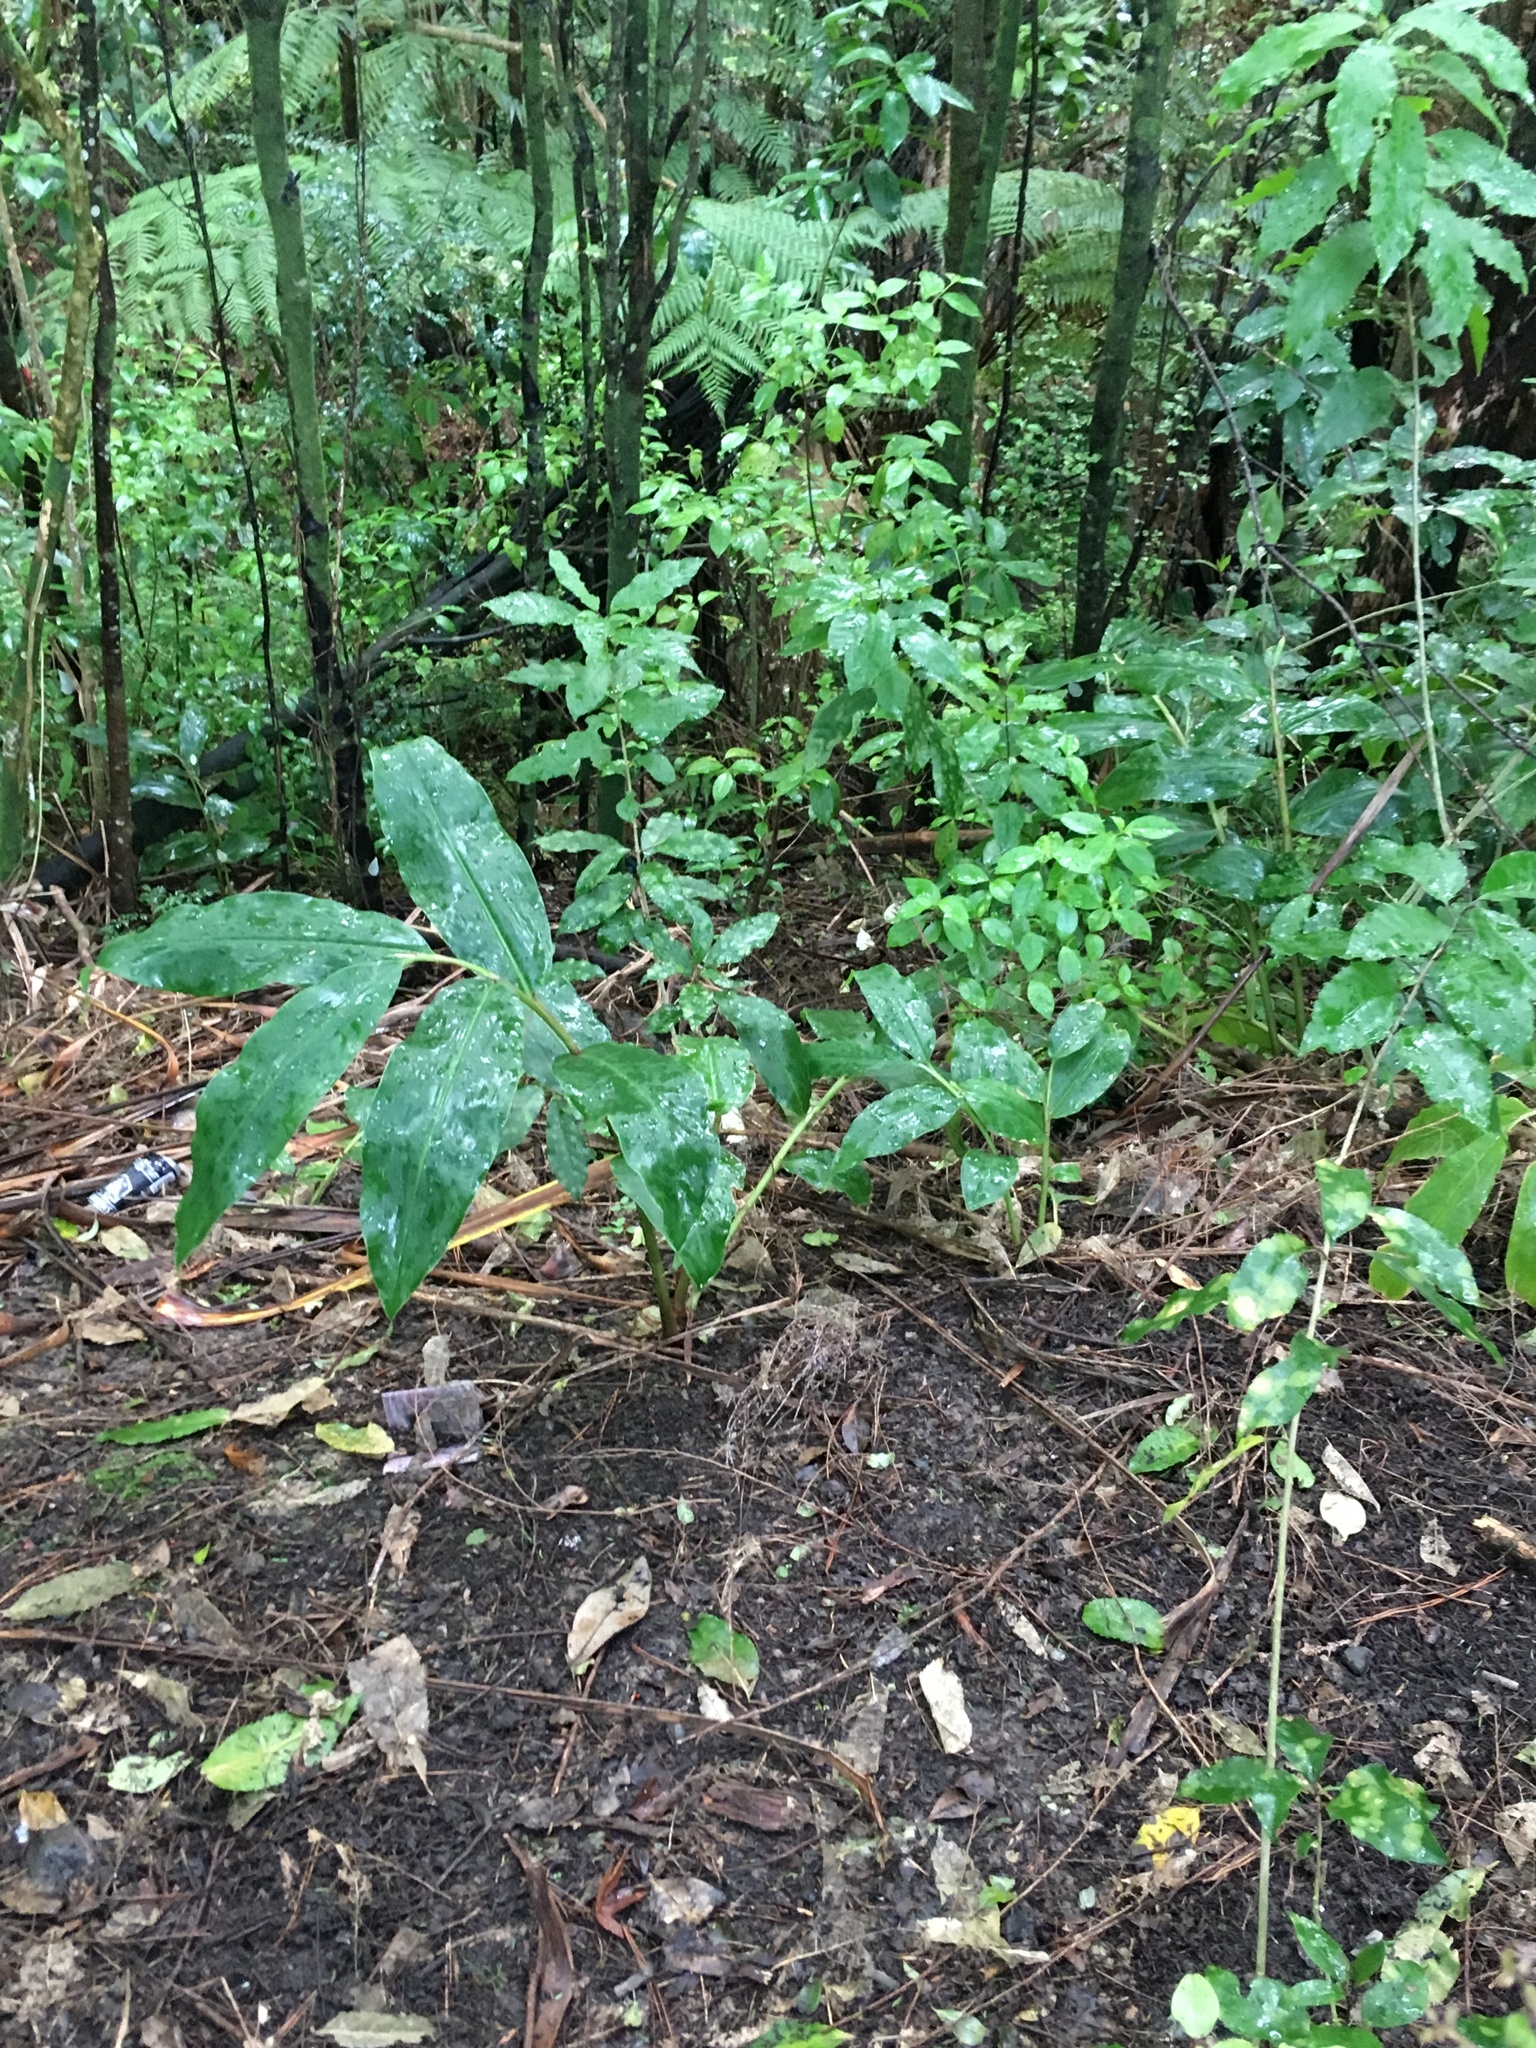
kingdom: Plantae
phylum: Tracheophyta
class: Liliopsida
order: Zingiberales
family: Zingiberaceae
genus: Hedychium
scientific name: Hedychium gardnerianum
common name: Himalayan ginger
